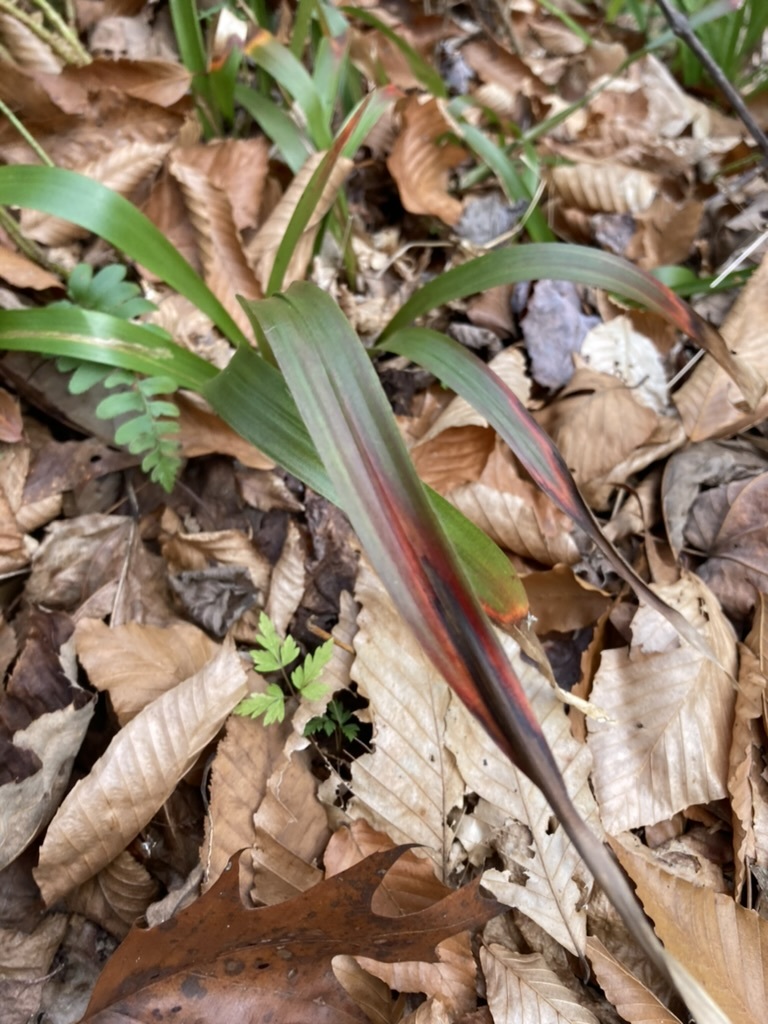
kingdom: Plantae
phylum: Tracheophyta
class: Liliopsida
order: Poales
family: Juncaceae
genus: Luzula
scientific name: Luzula acuminata
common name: Hairy woodrush
